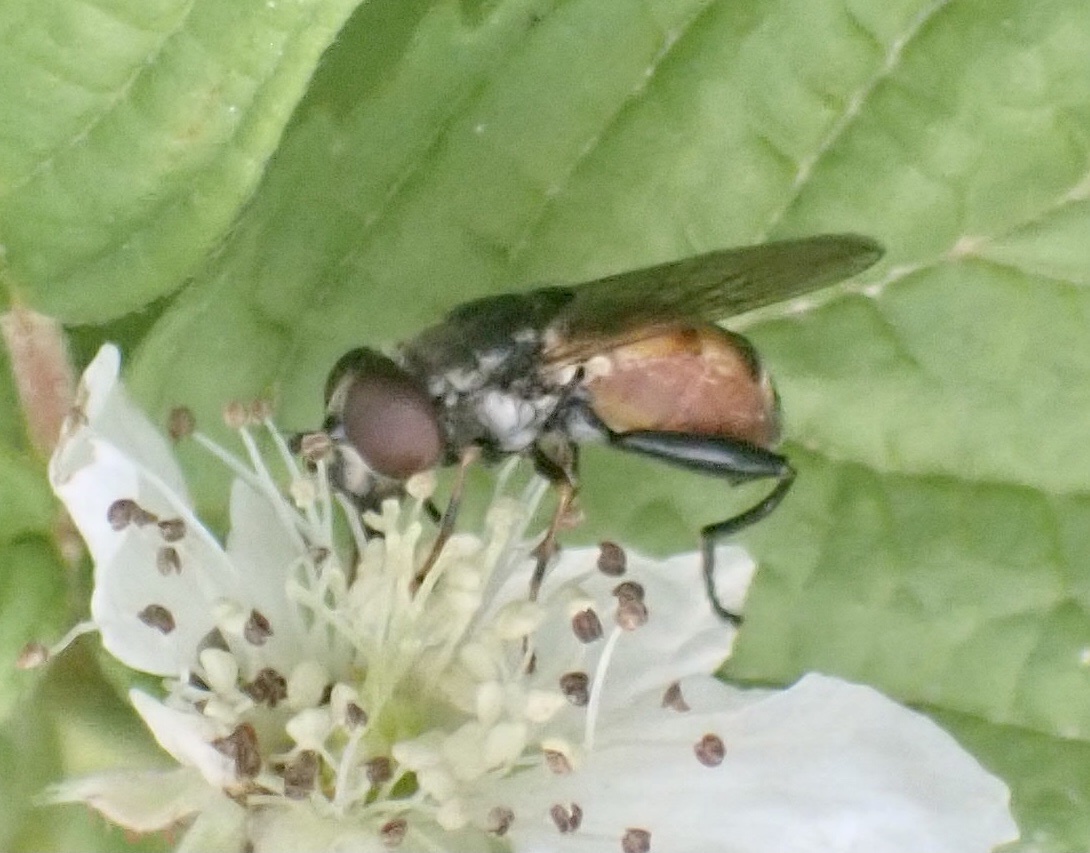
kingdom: Animalia
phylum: Arthropoda
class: Insecta
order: Diptera
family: Syrphidae
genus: Tropidia
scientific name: Tropidia scita
